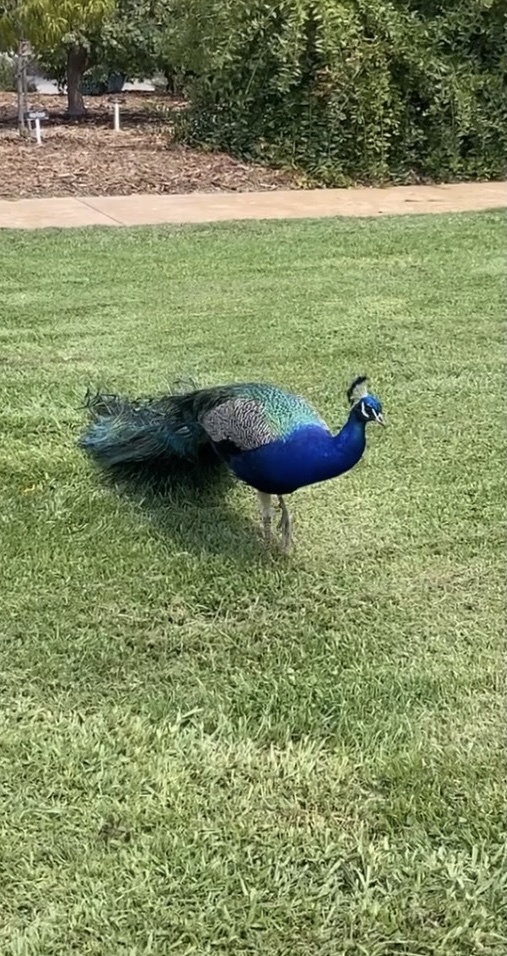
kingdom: Animalia
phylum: Chordata
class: Aves
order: Galliformes
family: Phasianidae
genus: Pavo
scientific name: Pavo cristatus
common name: Indian peafowl
